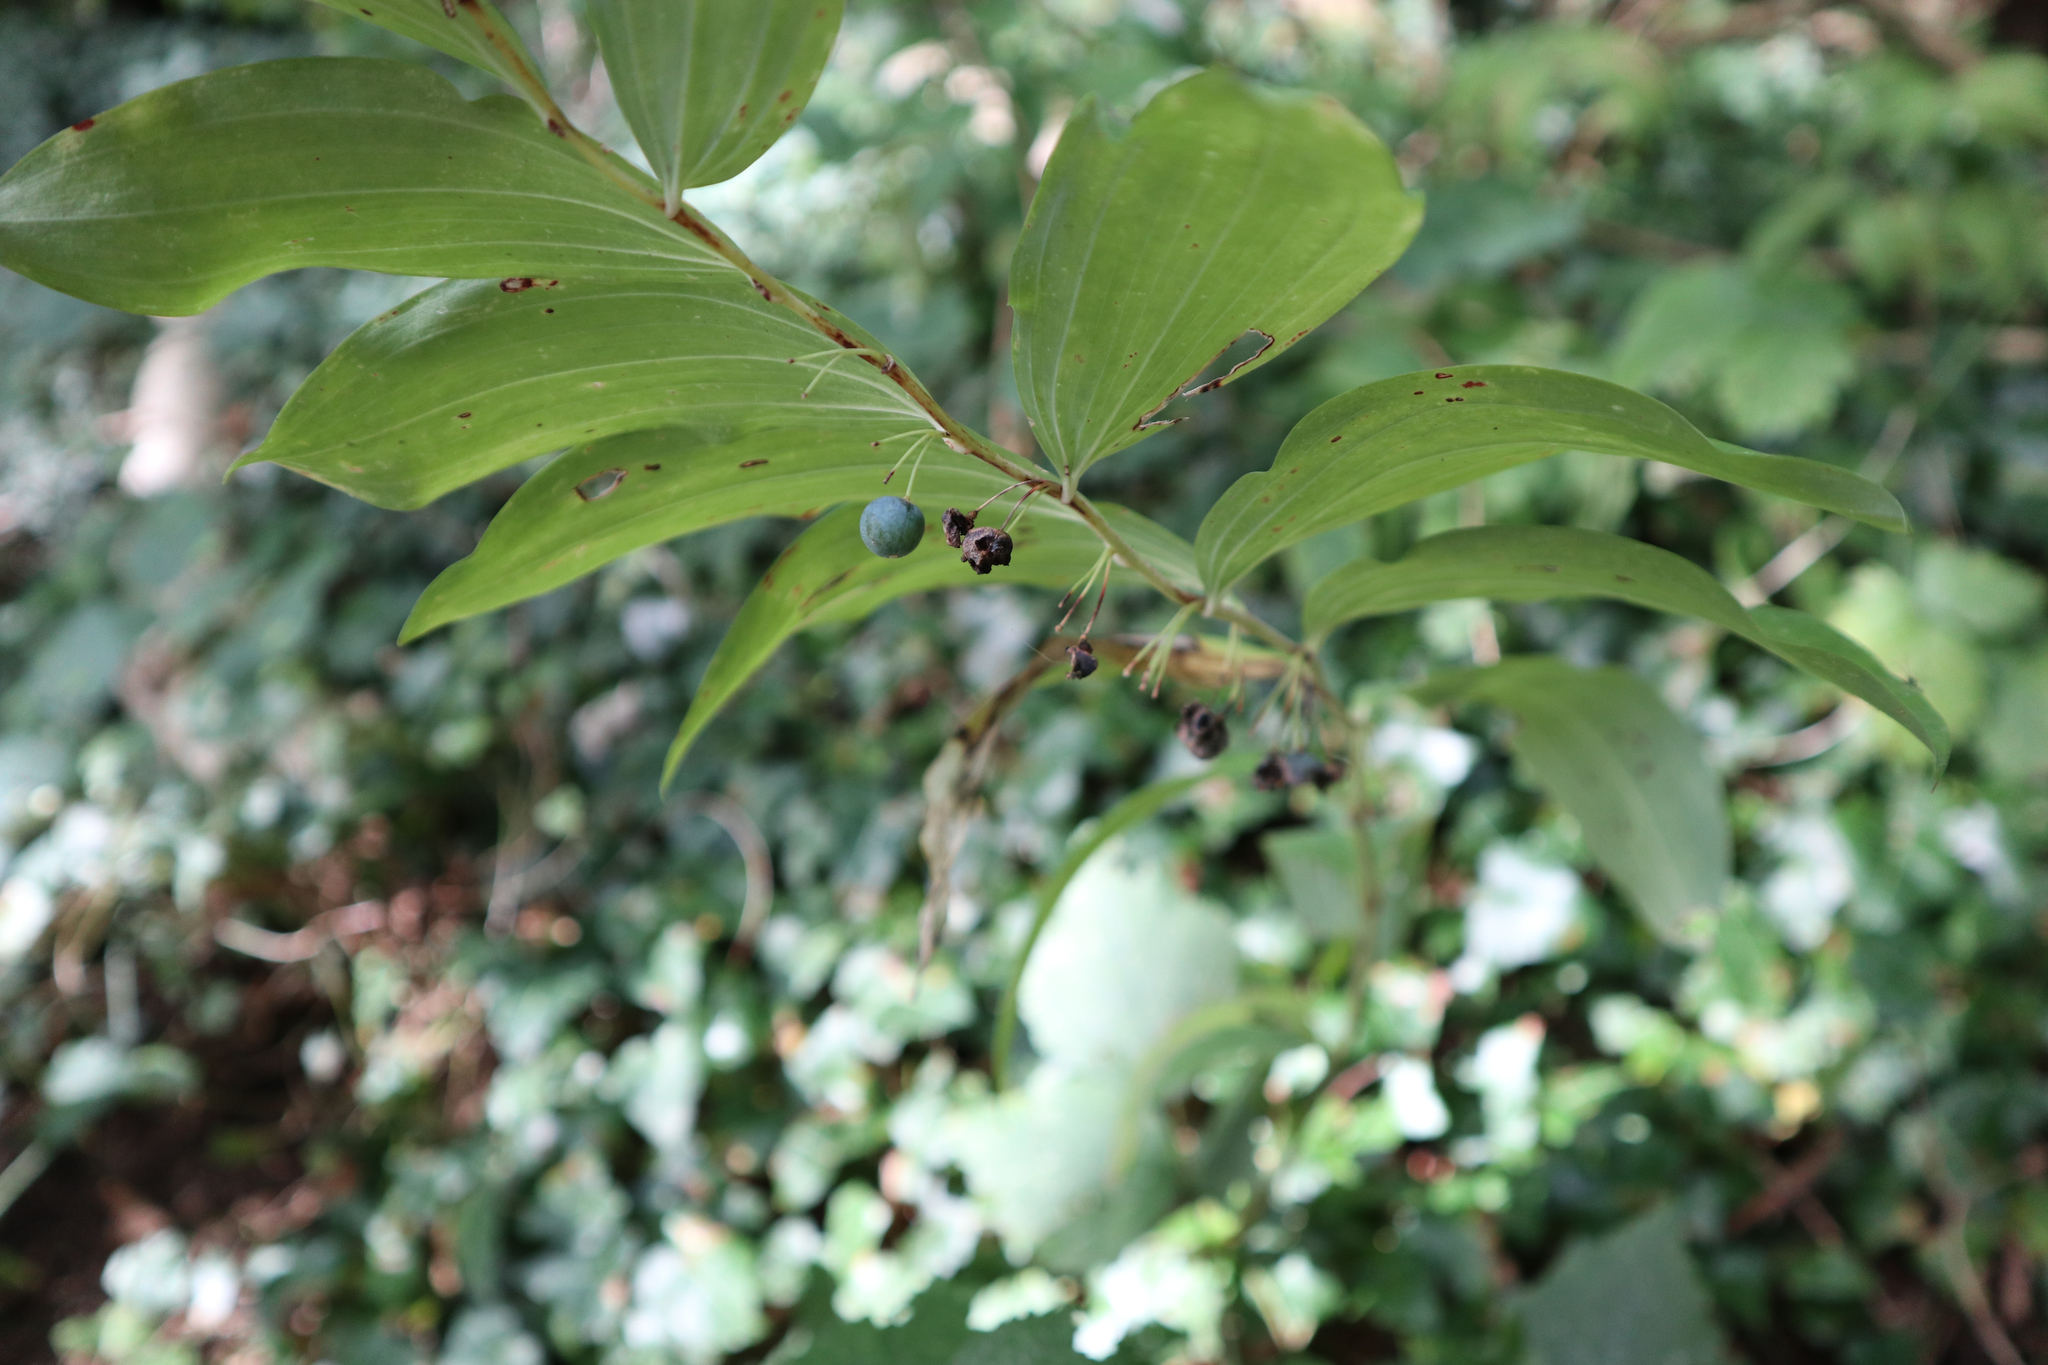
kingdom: Plantae
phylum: Tracheophyta
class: Liliopsida
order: Asparagales
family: Asparagaceae
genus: Polygonatum
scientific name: Polygonatum multiflorum
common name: Solomon's-seal
